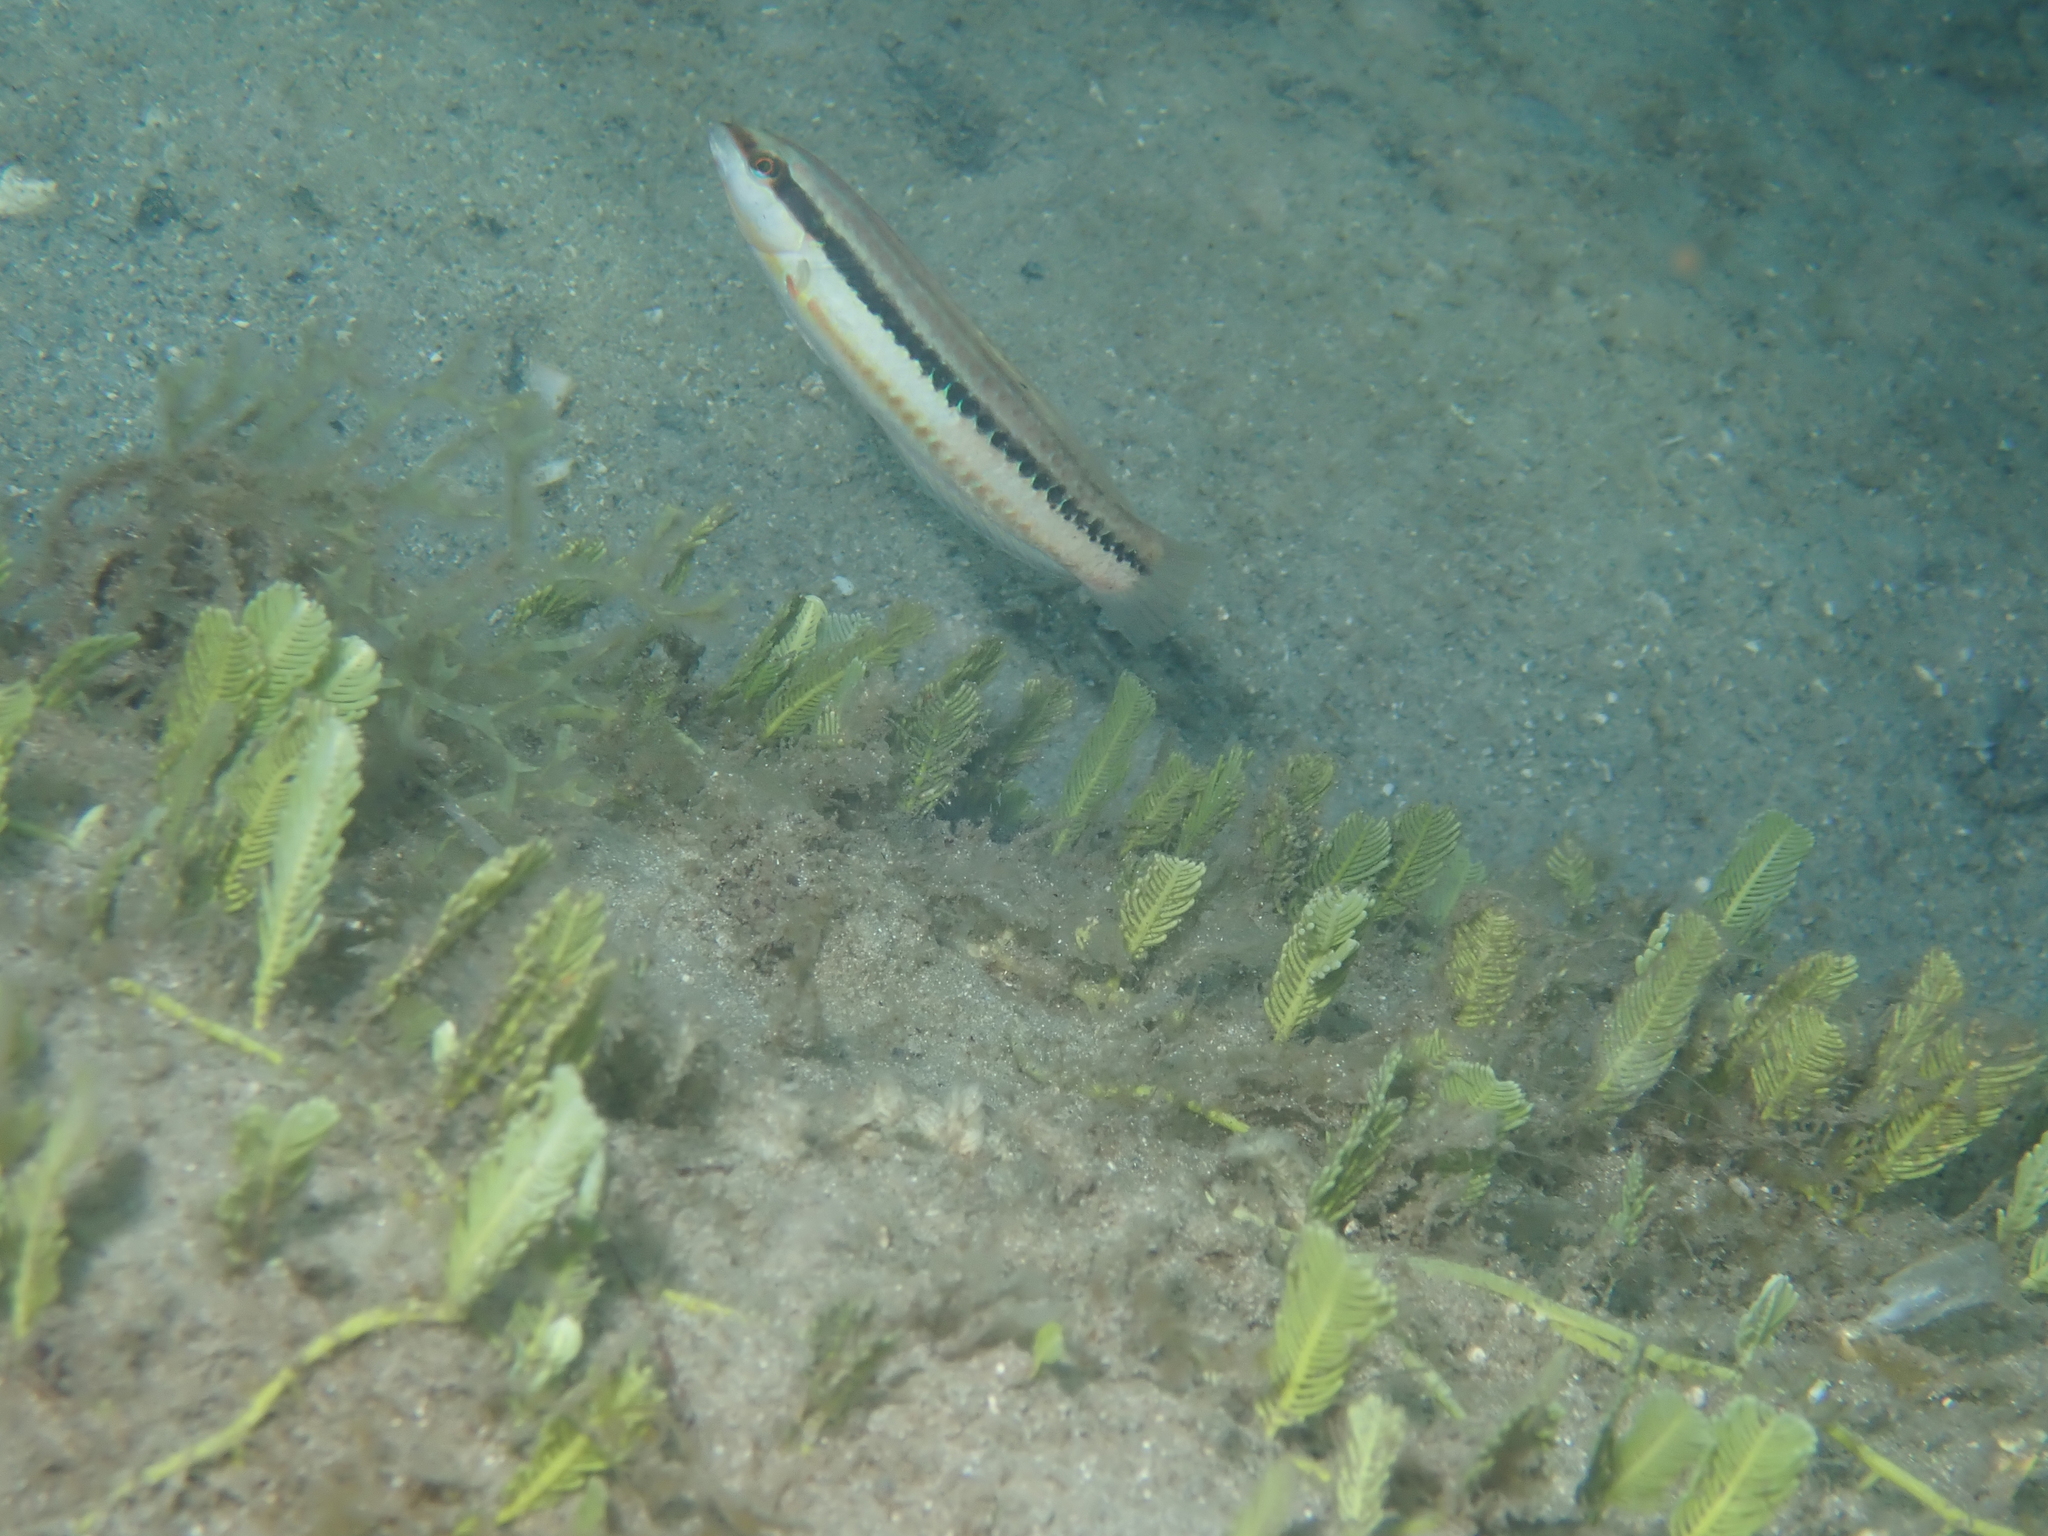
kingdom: Animalia
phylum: Chordata
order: Perciformes
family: Labridae
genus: Halichoeres
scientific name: Halichoeres bivittatus
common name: Slippery dick
